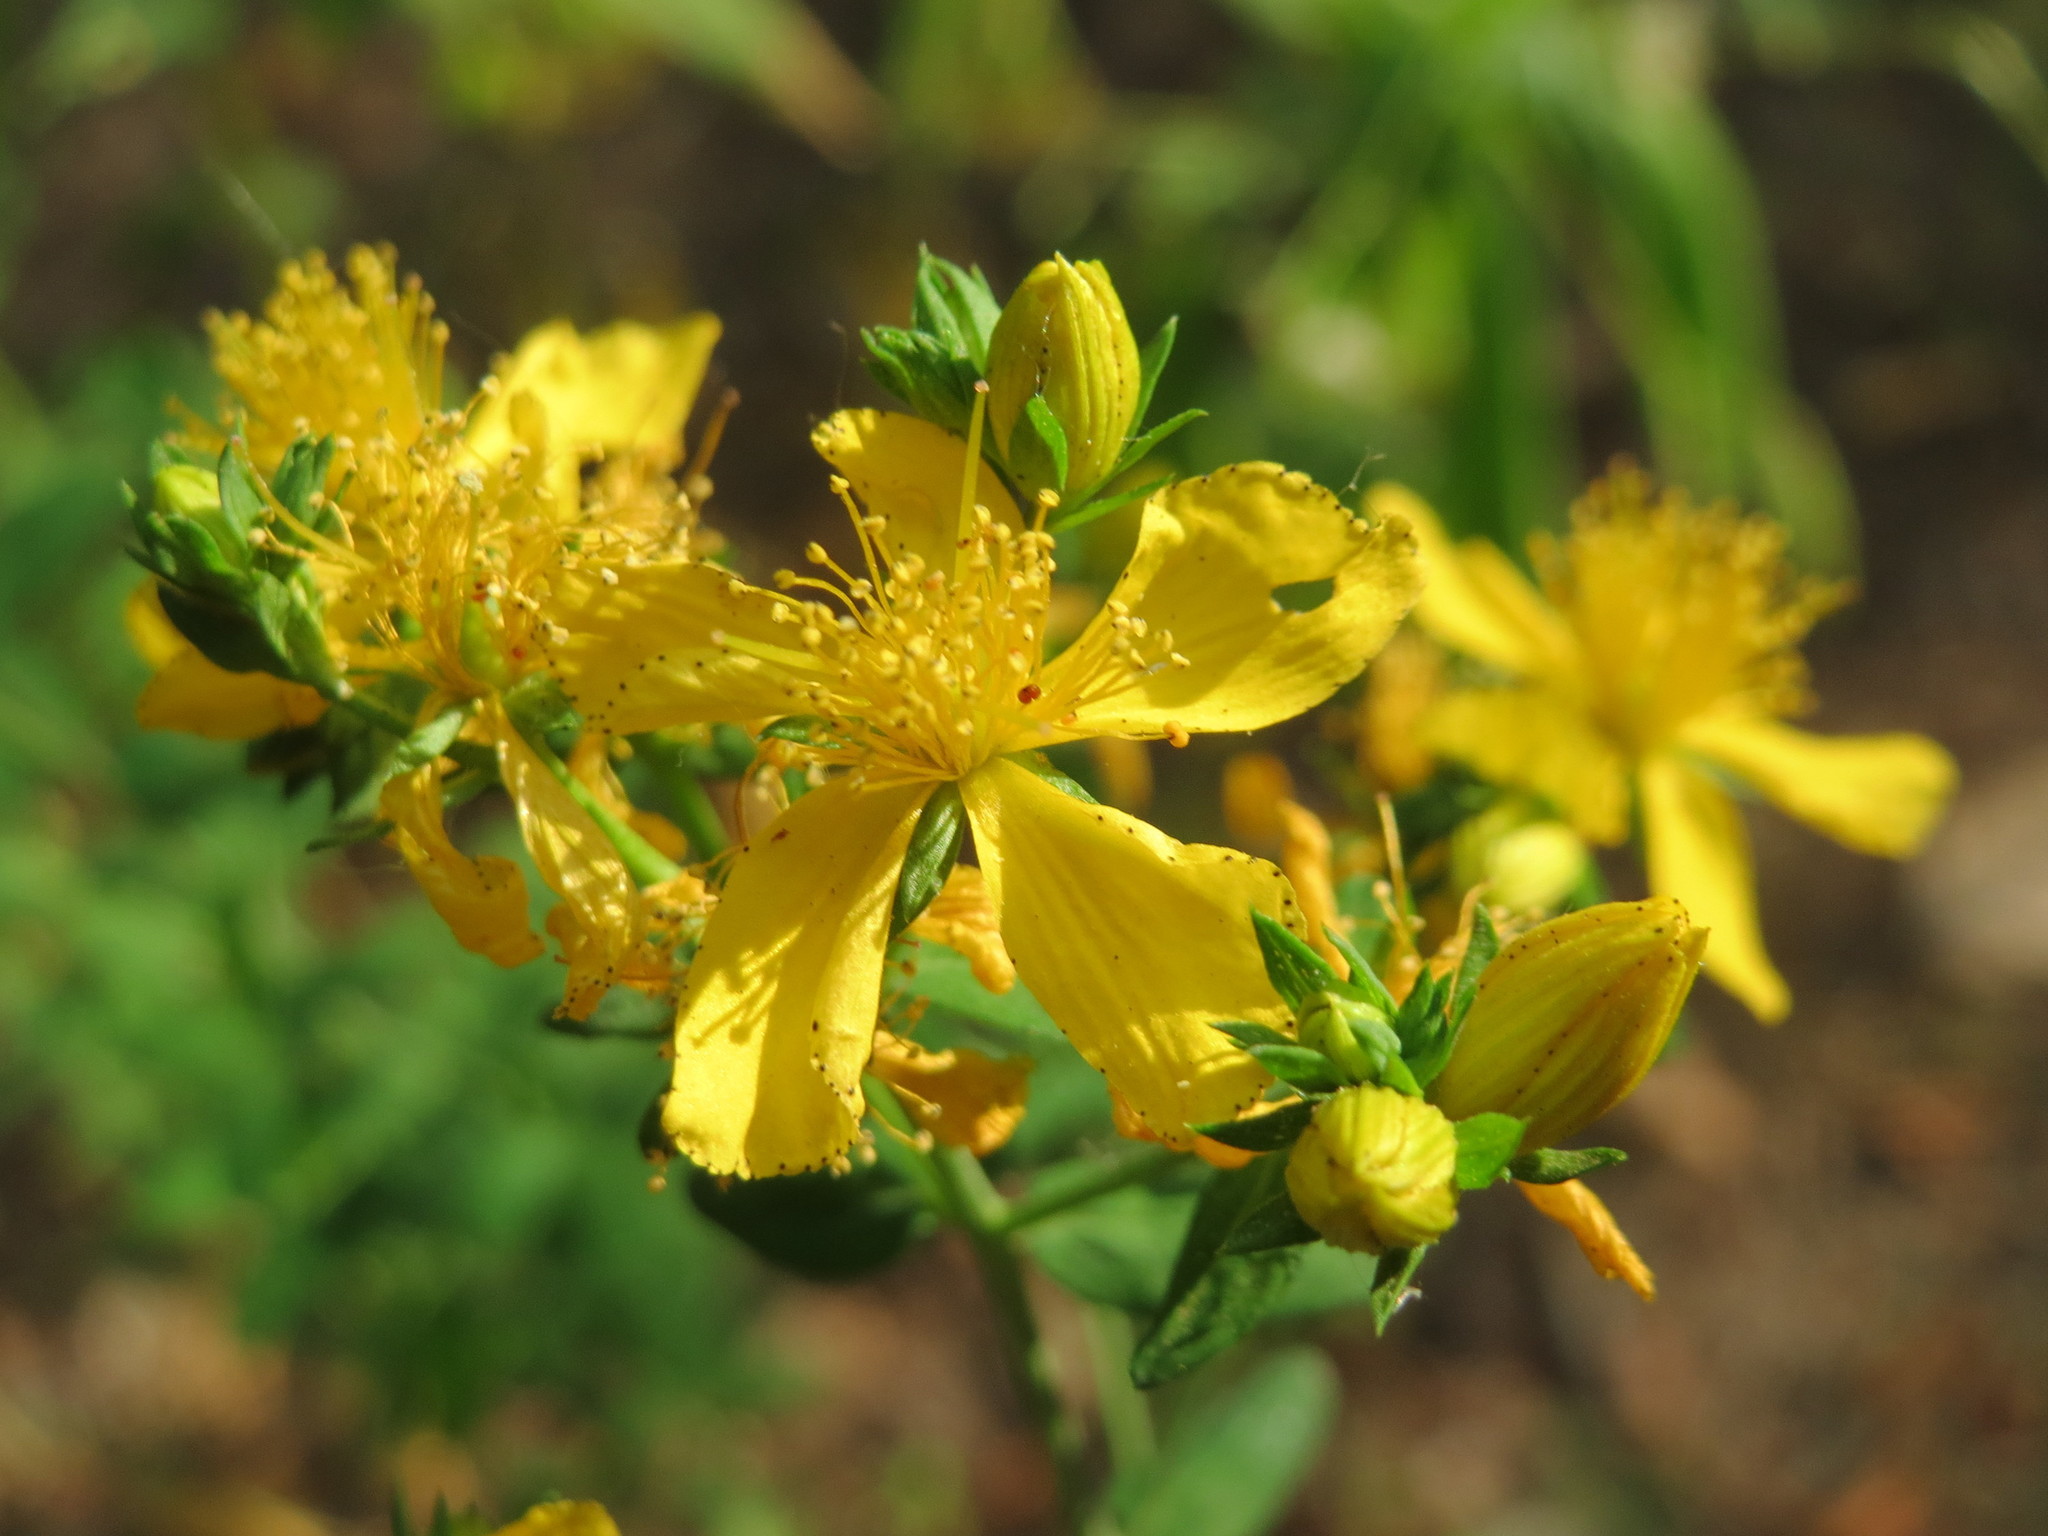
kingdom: Plantae
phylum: Tracheophyta
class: Magnoliopsida
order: Malpighiales
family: Hypericaceae
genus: Hypericum
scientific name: Hypericum perforatum
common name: Common st. johnswort
